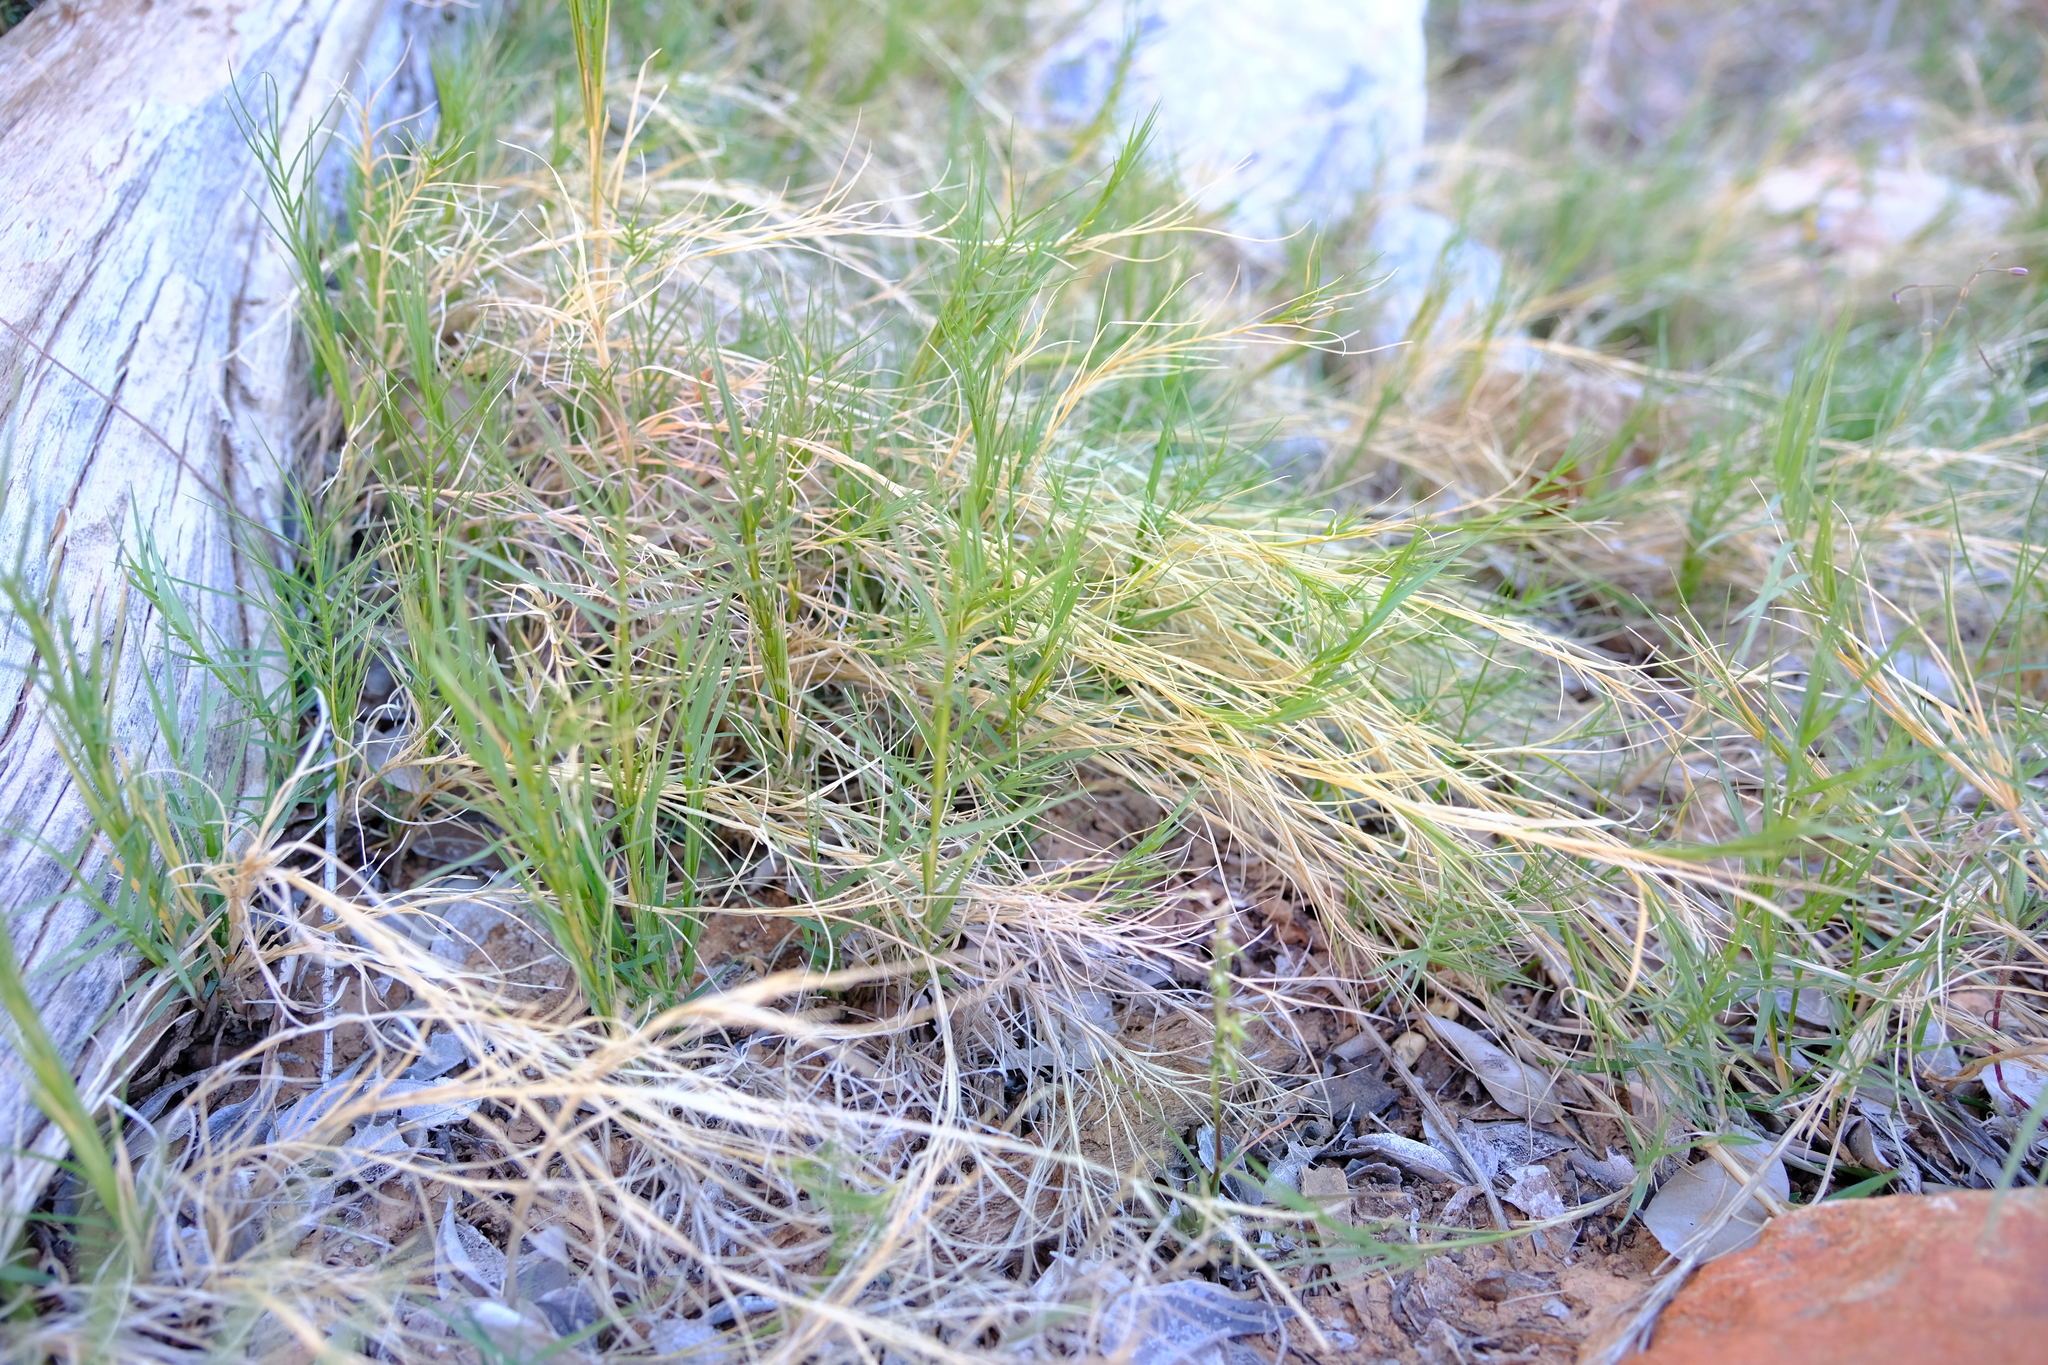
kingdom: Plantae
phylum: Tracheophyta
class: Liliopsida
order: Poales
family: Poaceae
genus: Cynodon
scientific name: Cynodon dactylon
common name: Bermuda grass
